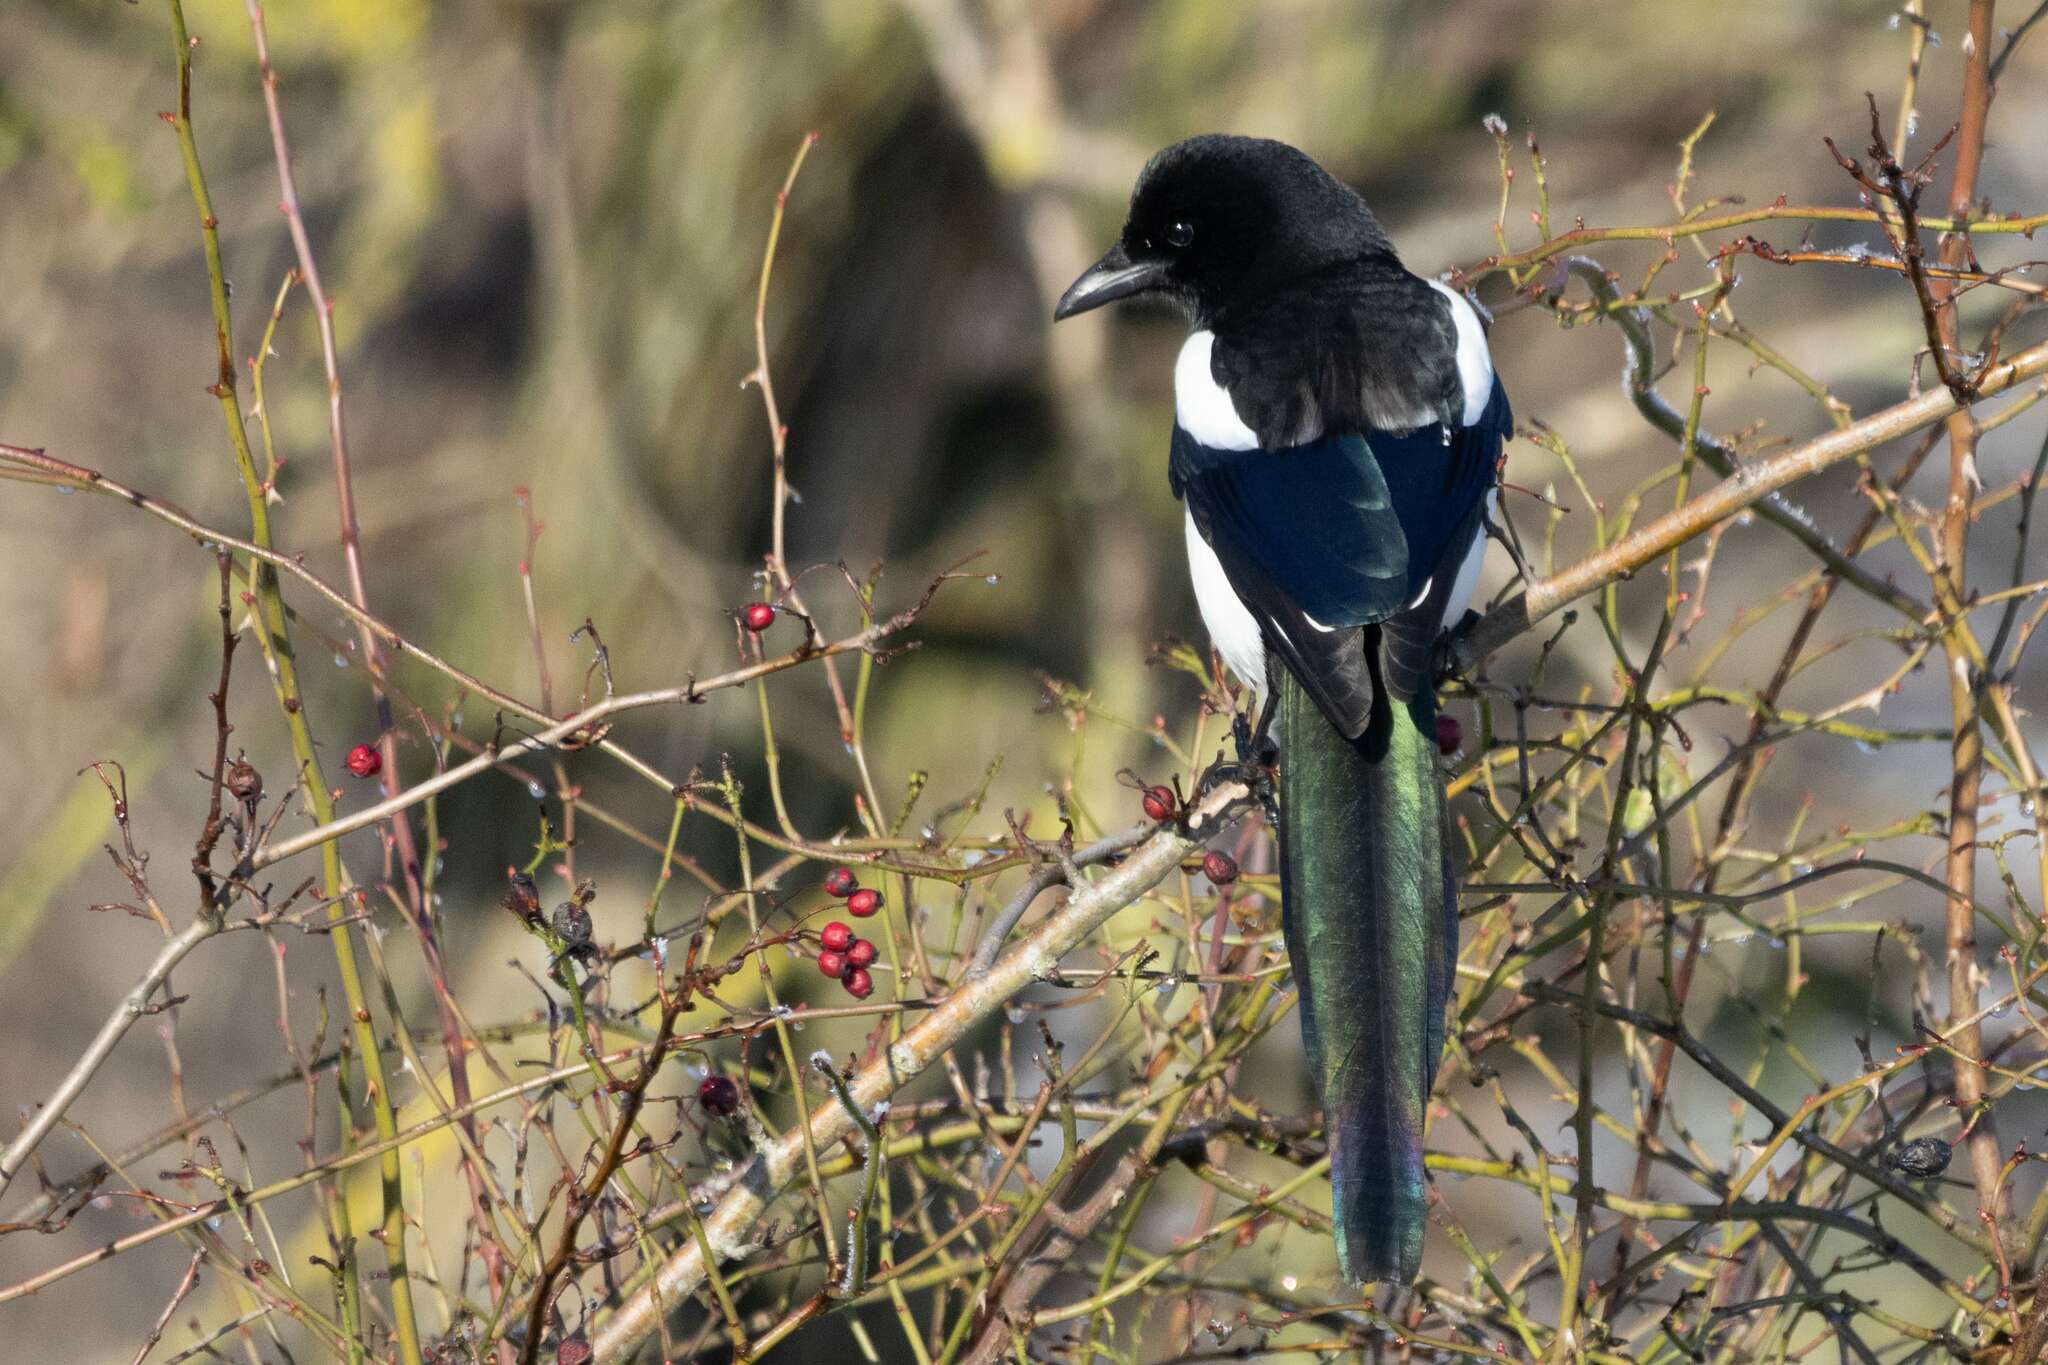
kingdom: Animalia
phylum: Chordata
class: Aves
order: Passeriformes
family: Corvidae
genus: Pica
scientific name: Pica pica
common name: Eurasian magpie
